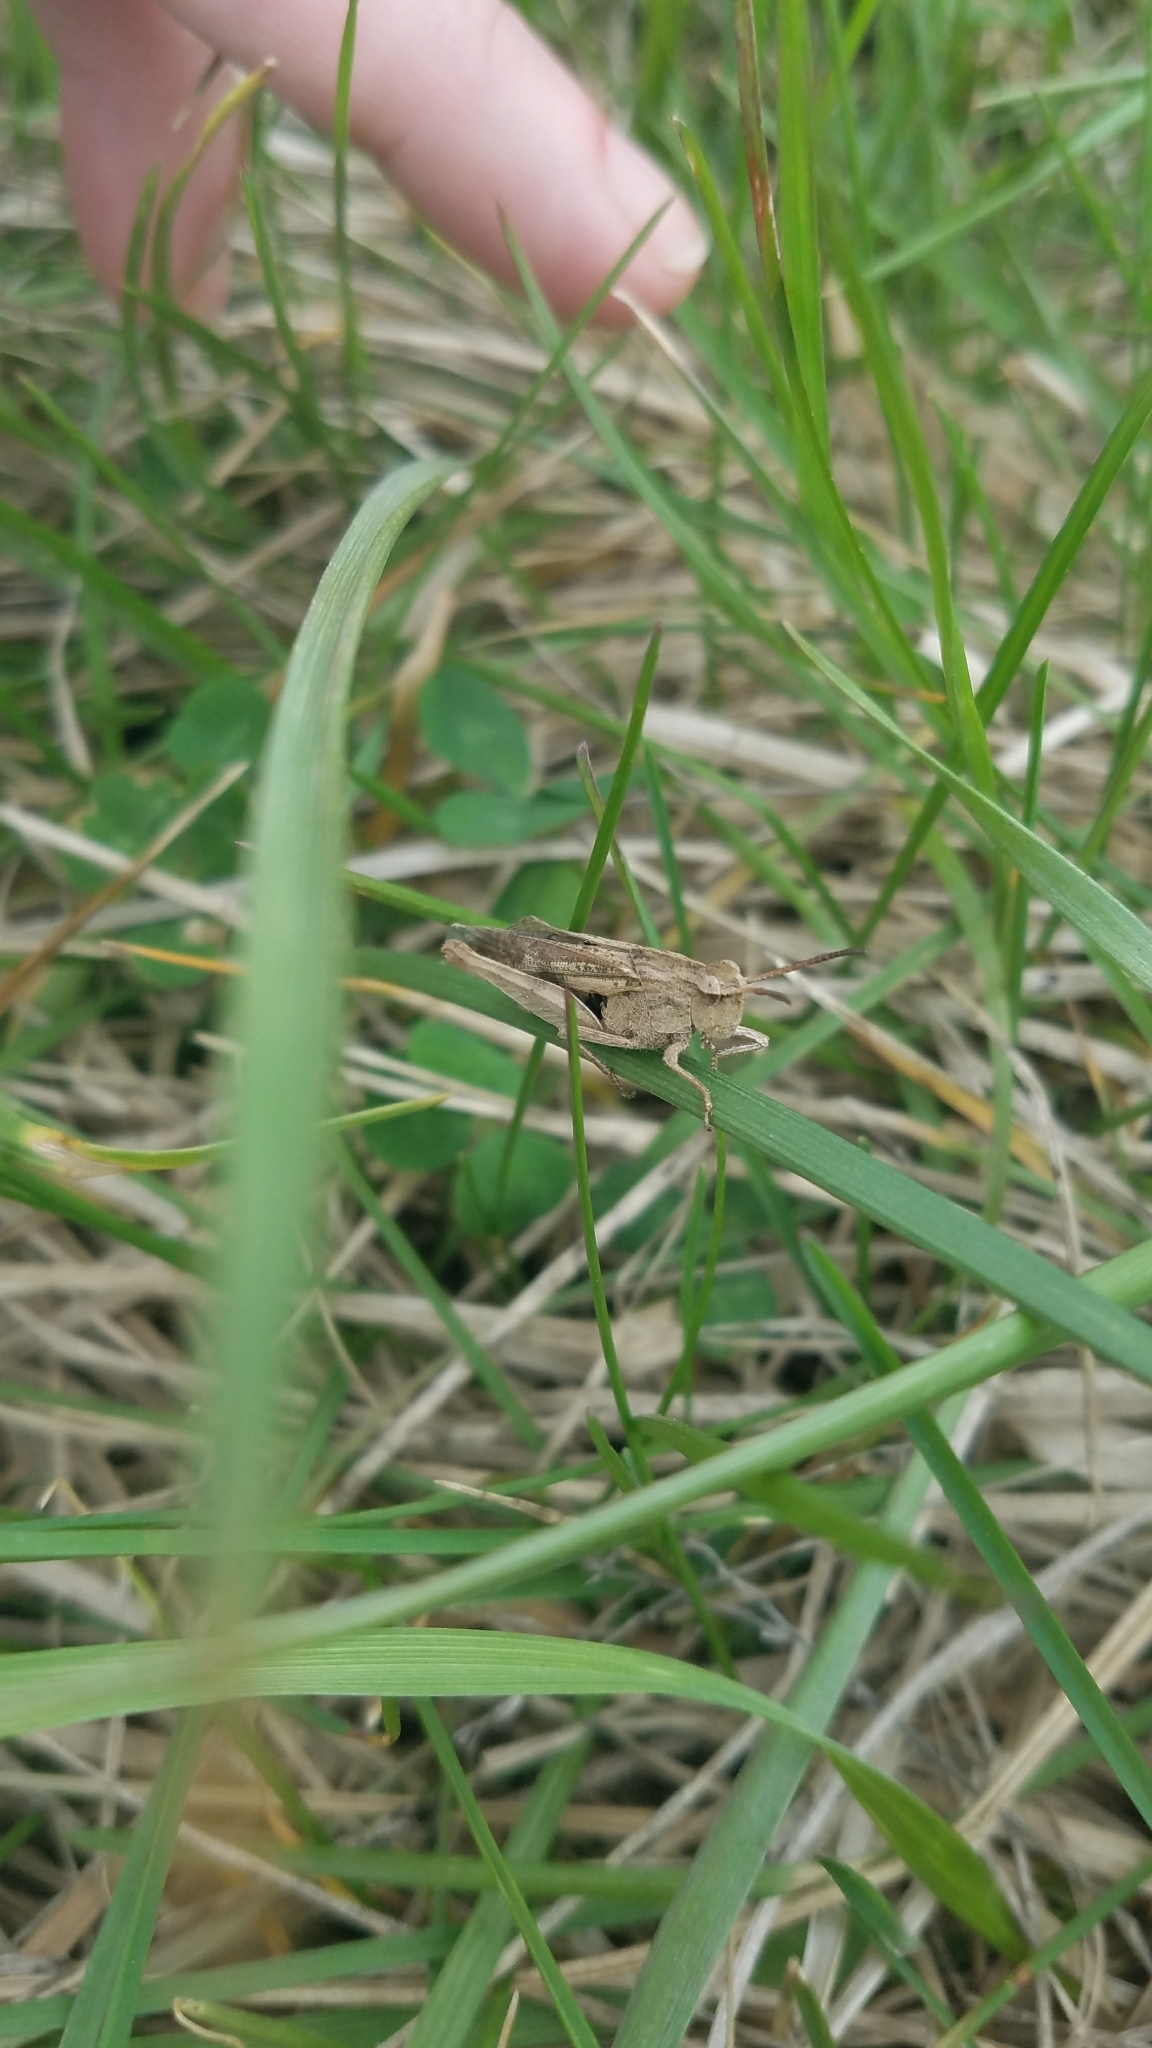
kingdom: Animalia
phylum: Arthropoda
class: Insecta
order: Orthoptera
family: Acrididae
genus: Chortophaga
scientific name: Chortophaga viridifasciata
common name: Green-striped grasshopper
